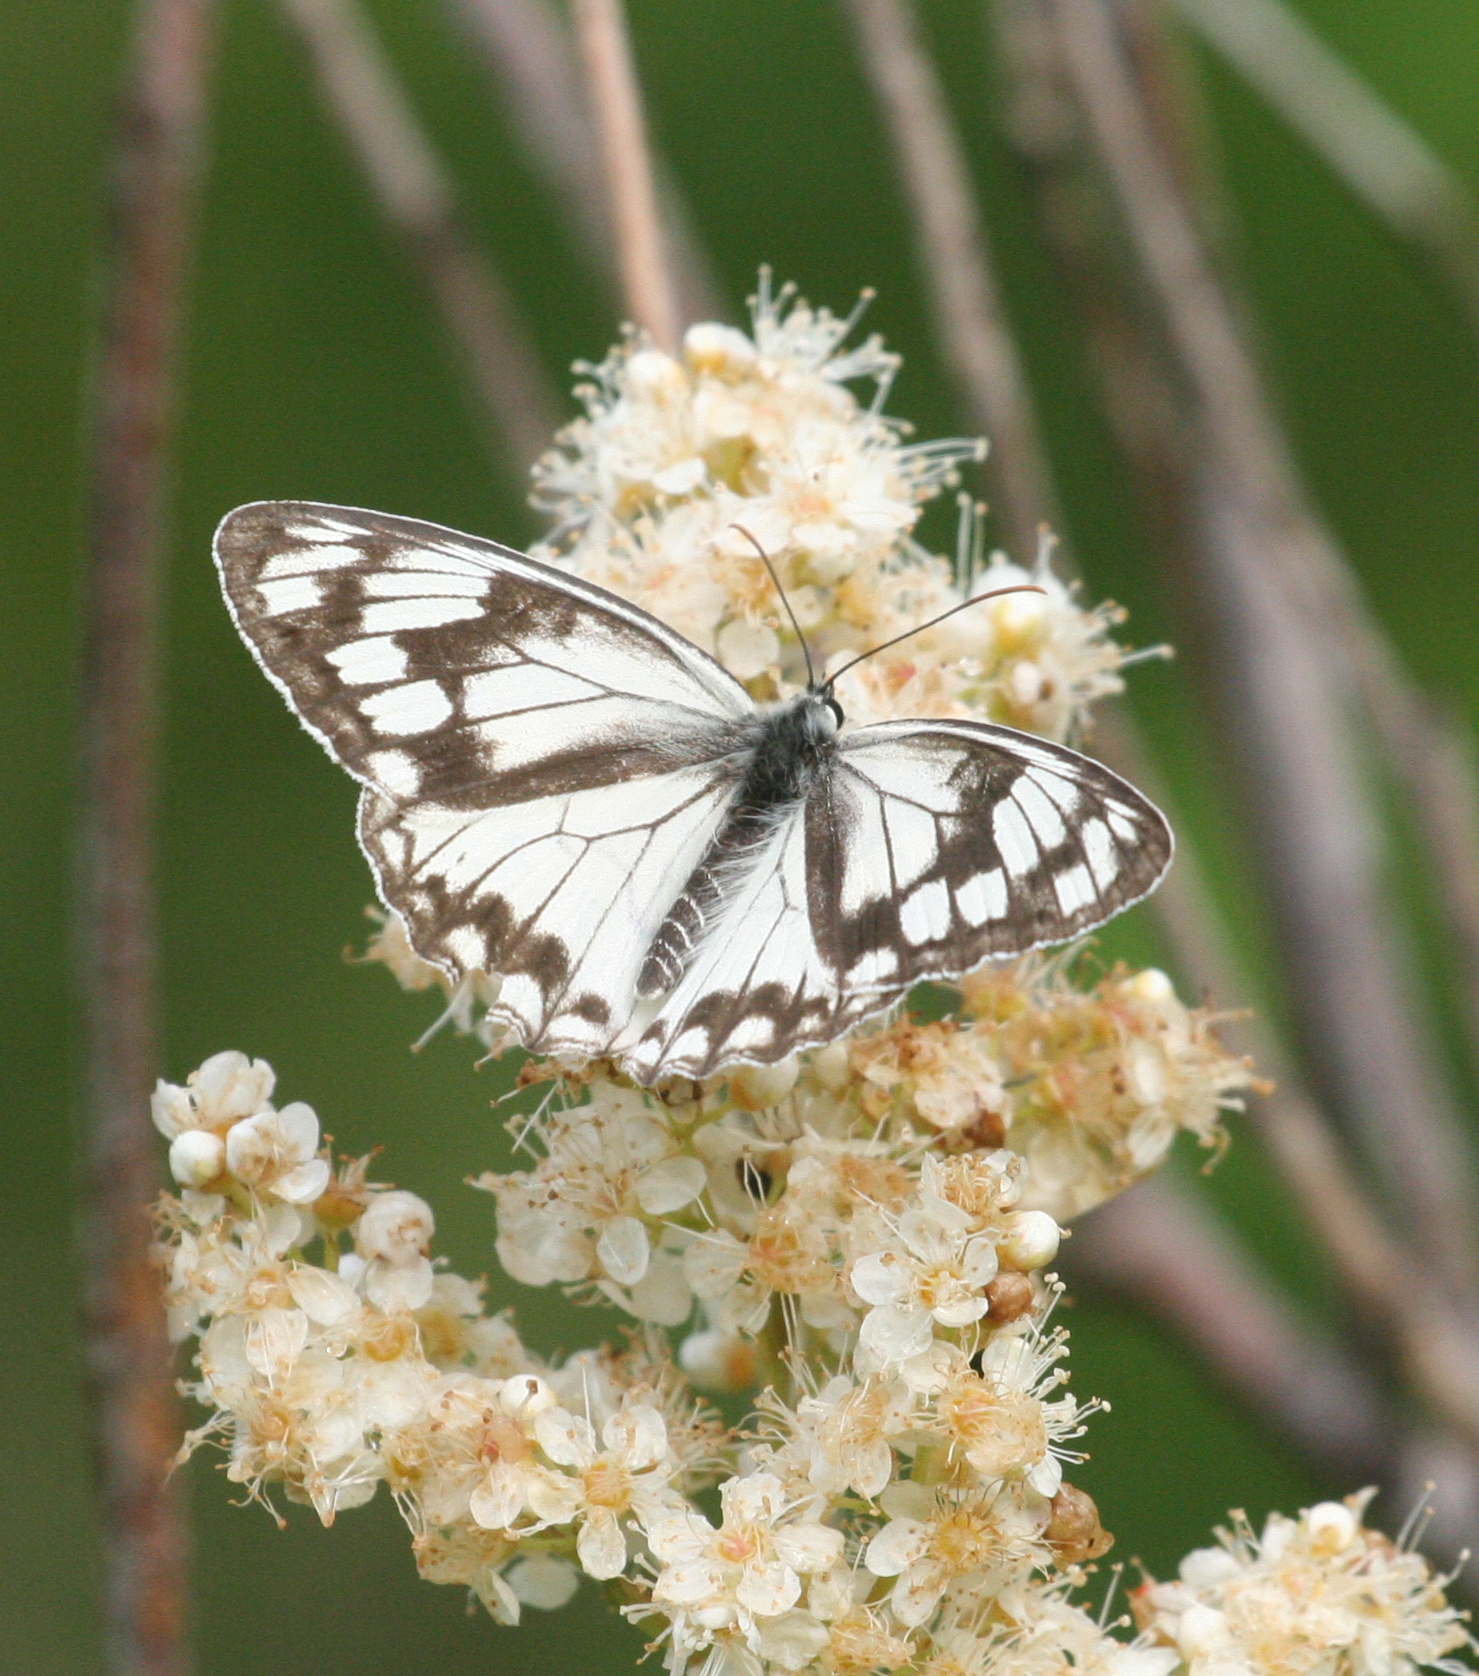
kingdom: Animalia
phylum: Arthropoda
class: Insecta
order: Lepidoptera
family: Nymphalidae
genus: Melanargia
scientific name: Melanargia halimede
